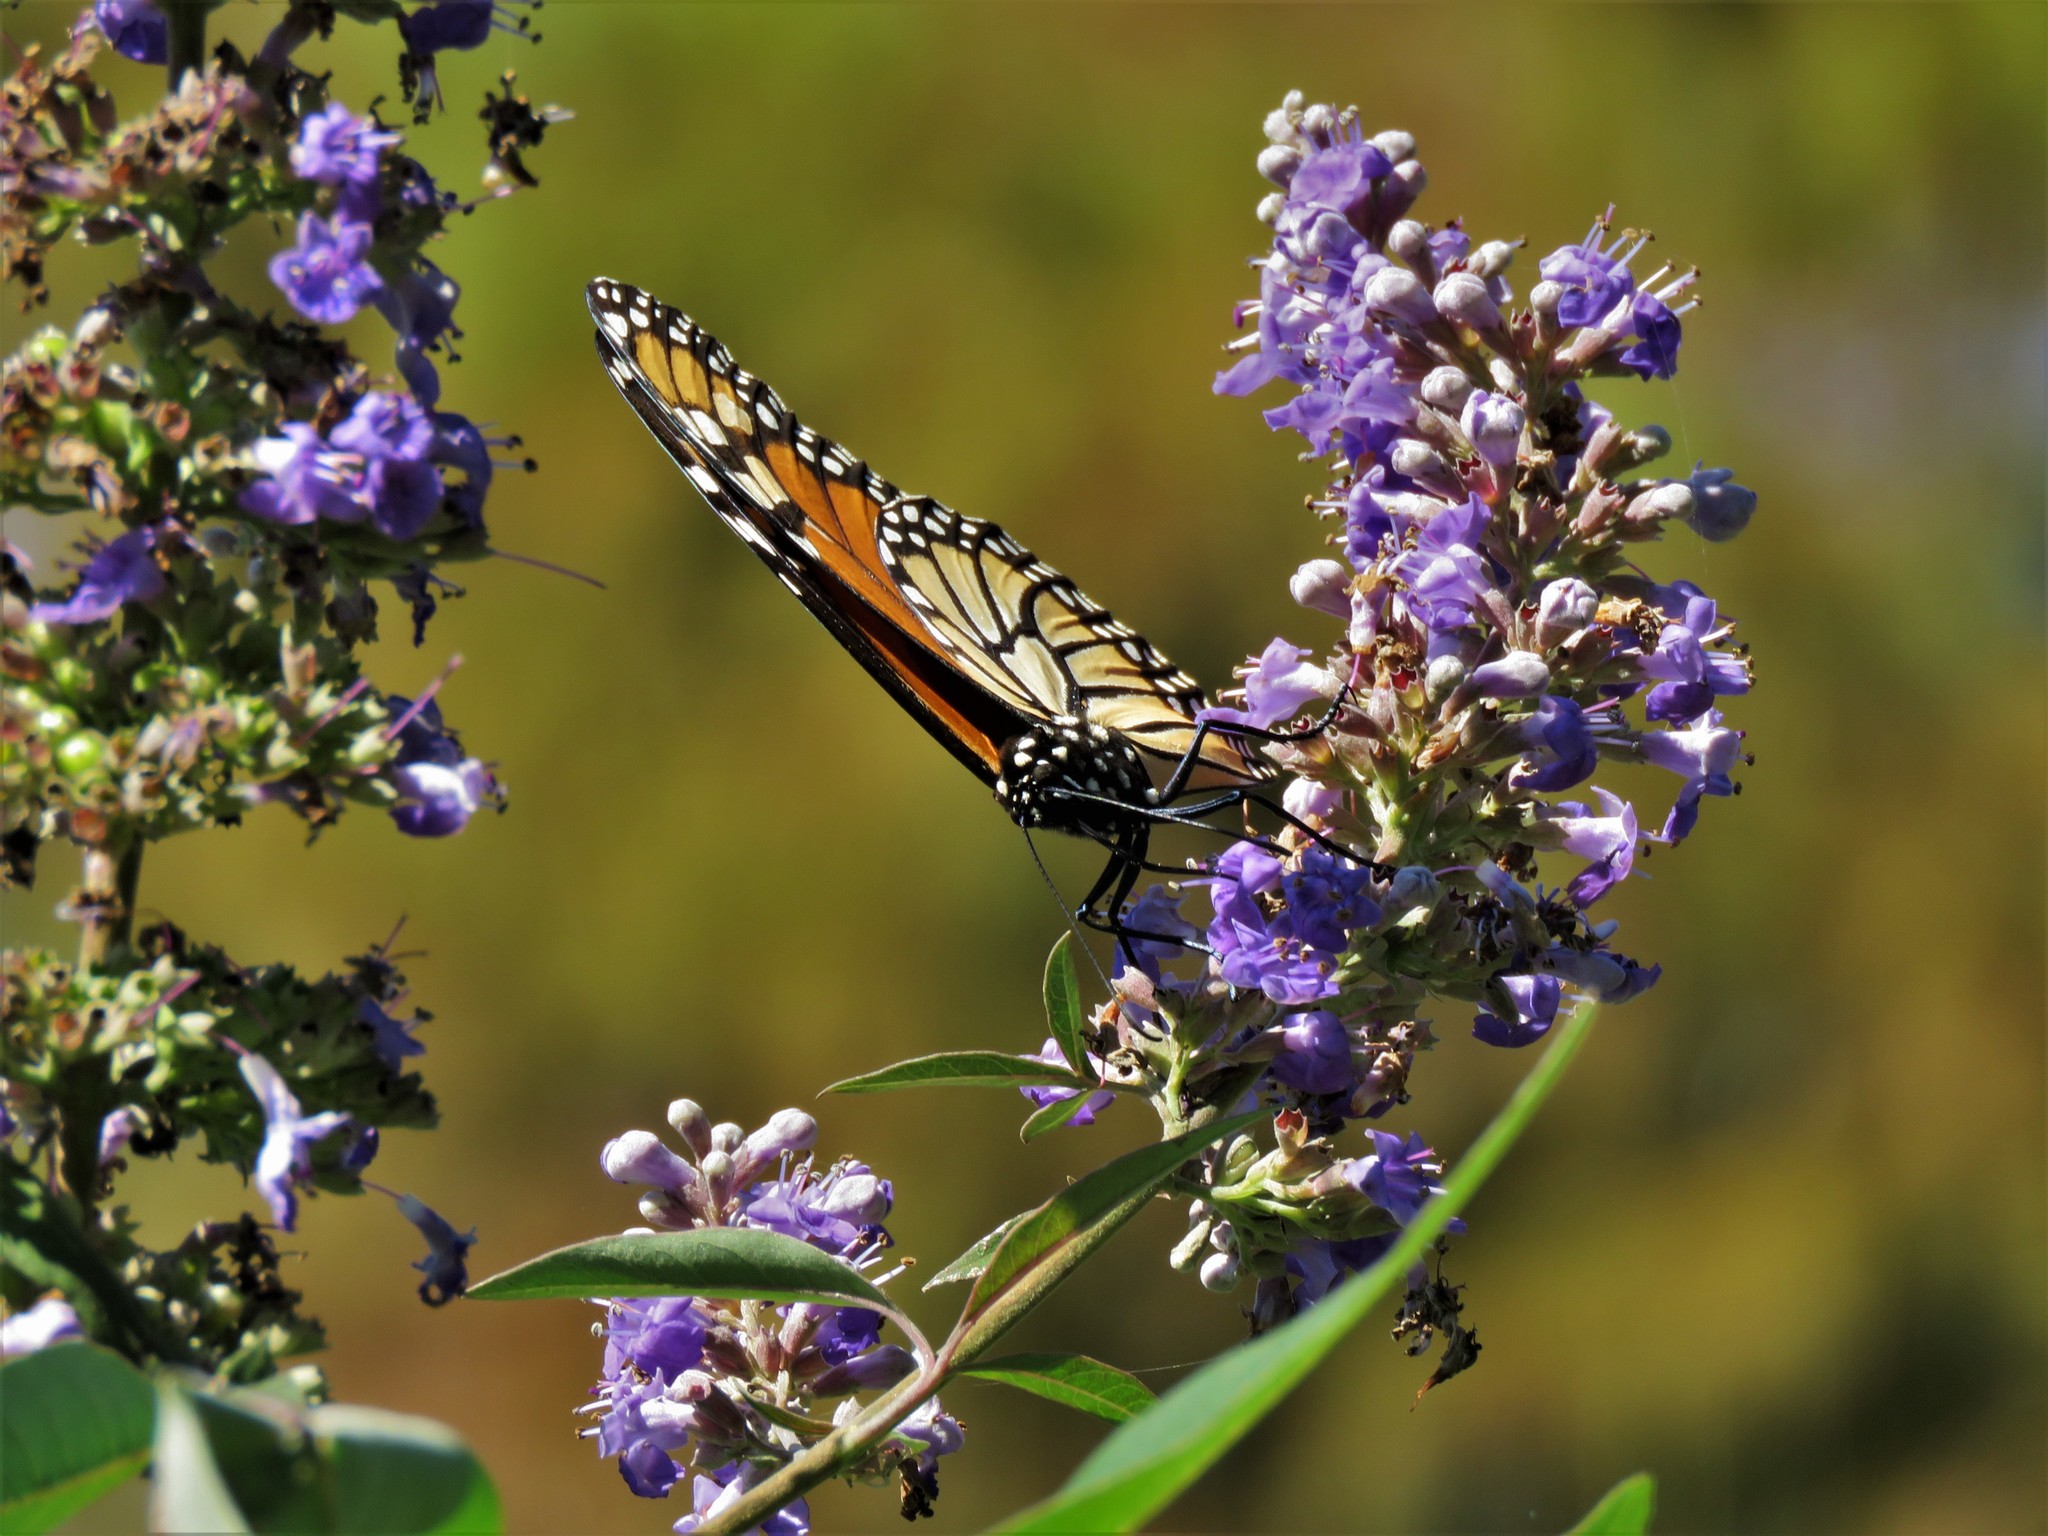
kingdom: Animalia
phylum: Arthropoda
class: Insecta
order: Lepidoptera
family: Nymphalidae
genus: Danaus
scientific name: Danaus plexippus
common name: Monarch
